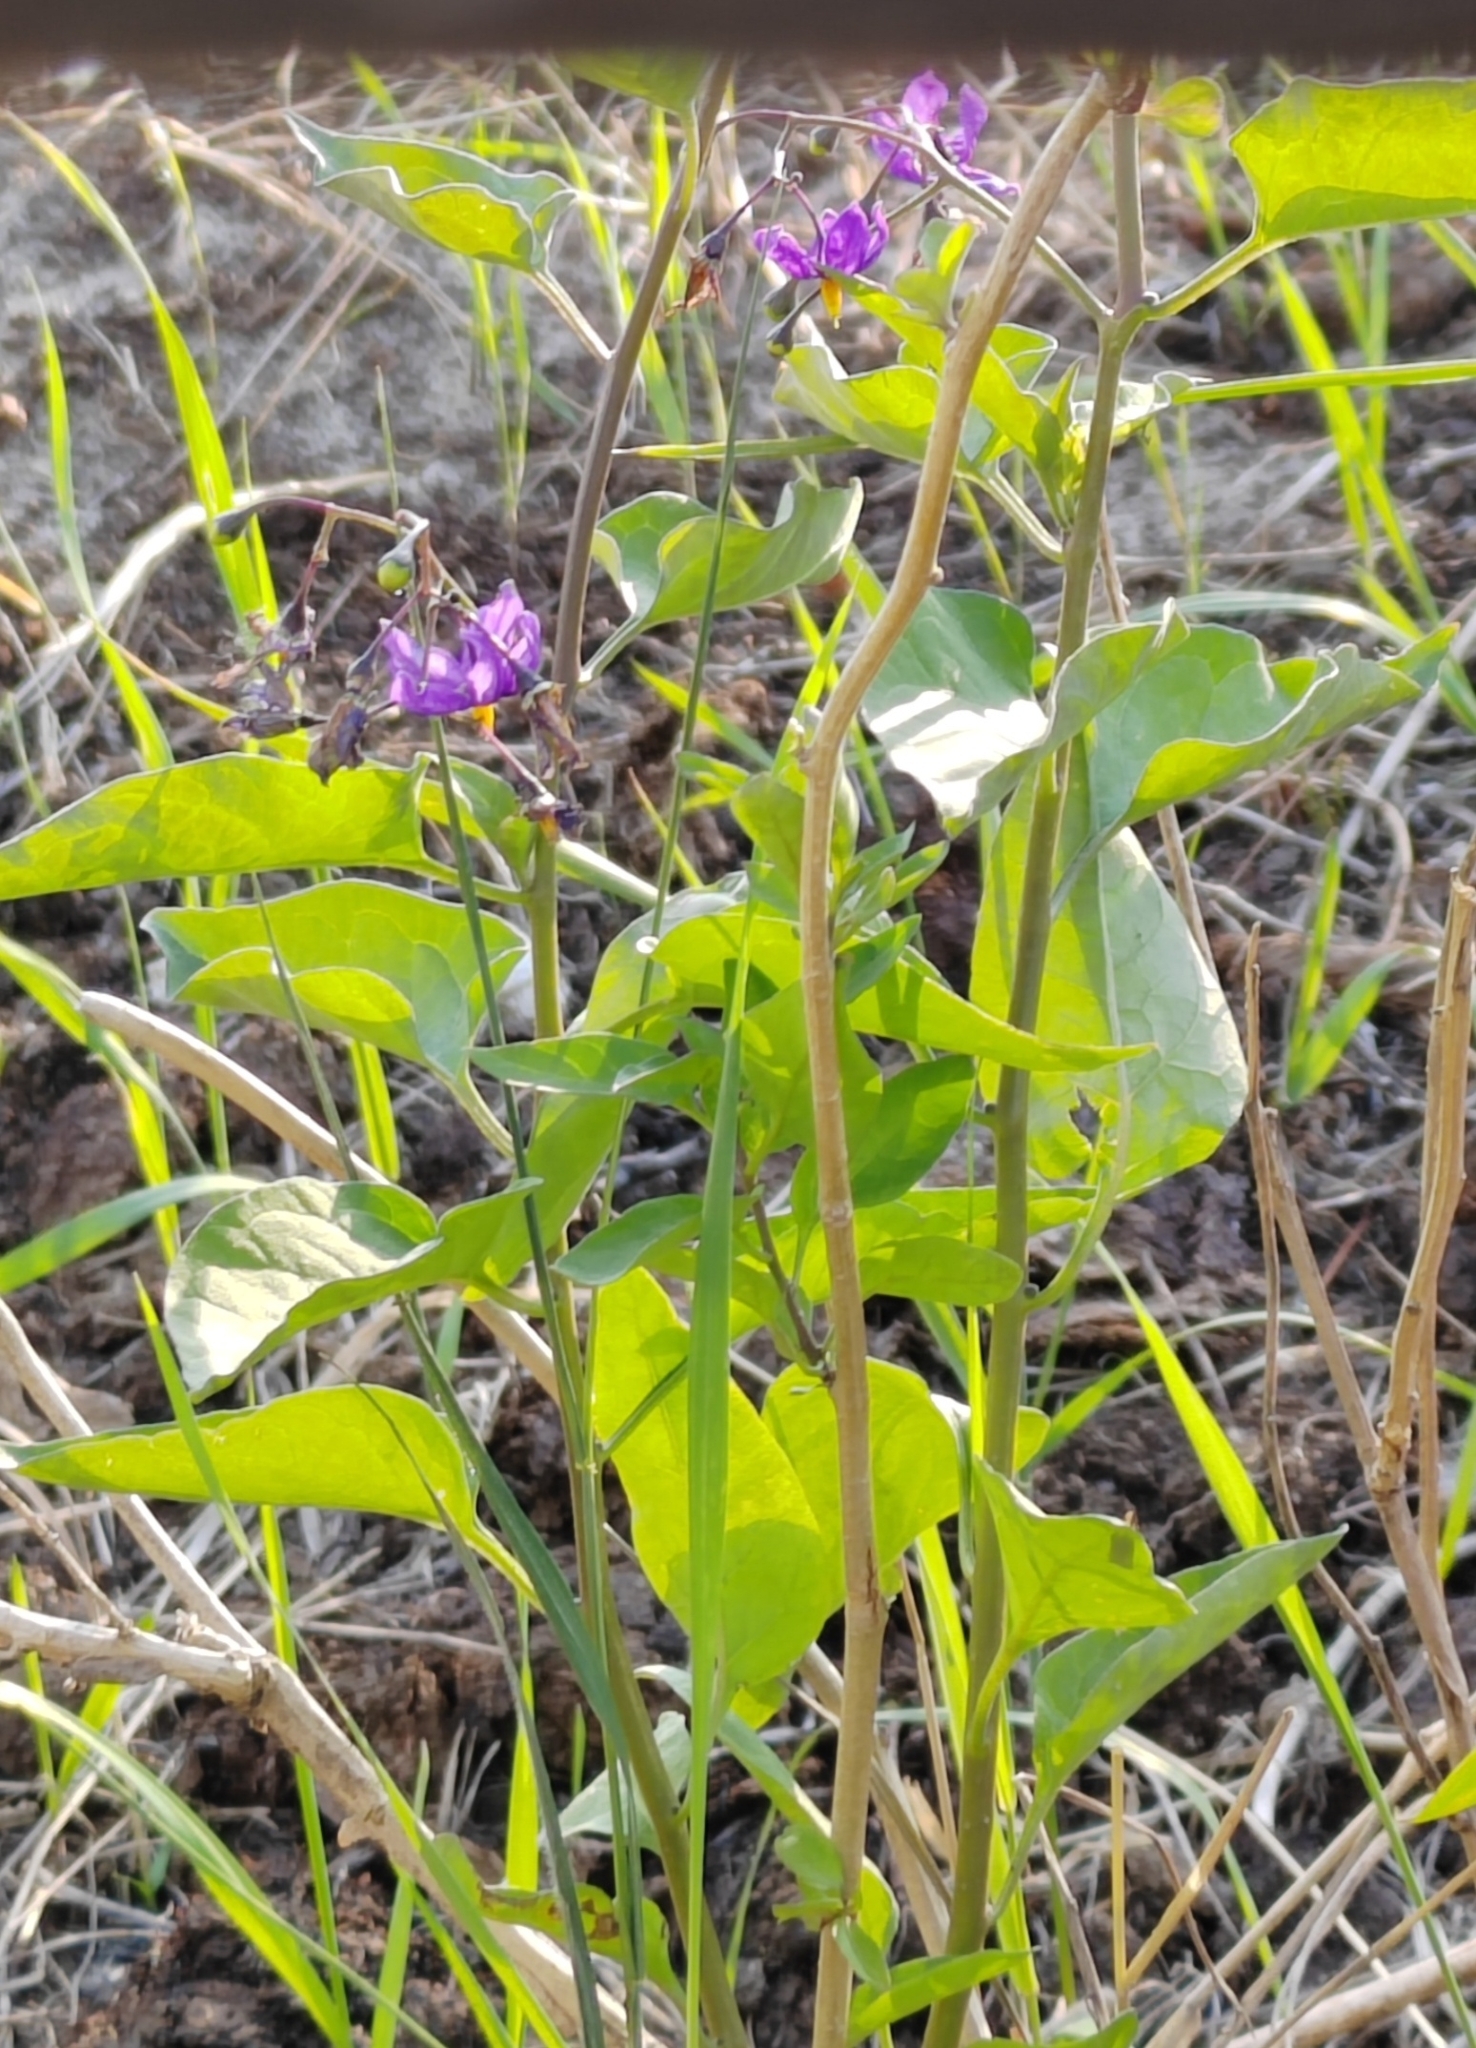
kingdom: Plantae
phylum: Tracheophyta
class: Magnoliopsida
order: Solanales
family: Solanaceae
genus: Solanum
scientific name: Solanum dulcamara
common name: Climbing nightshade
